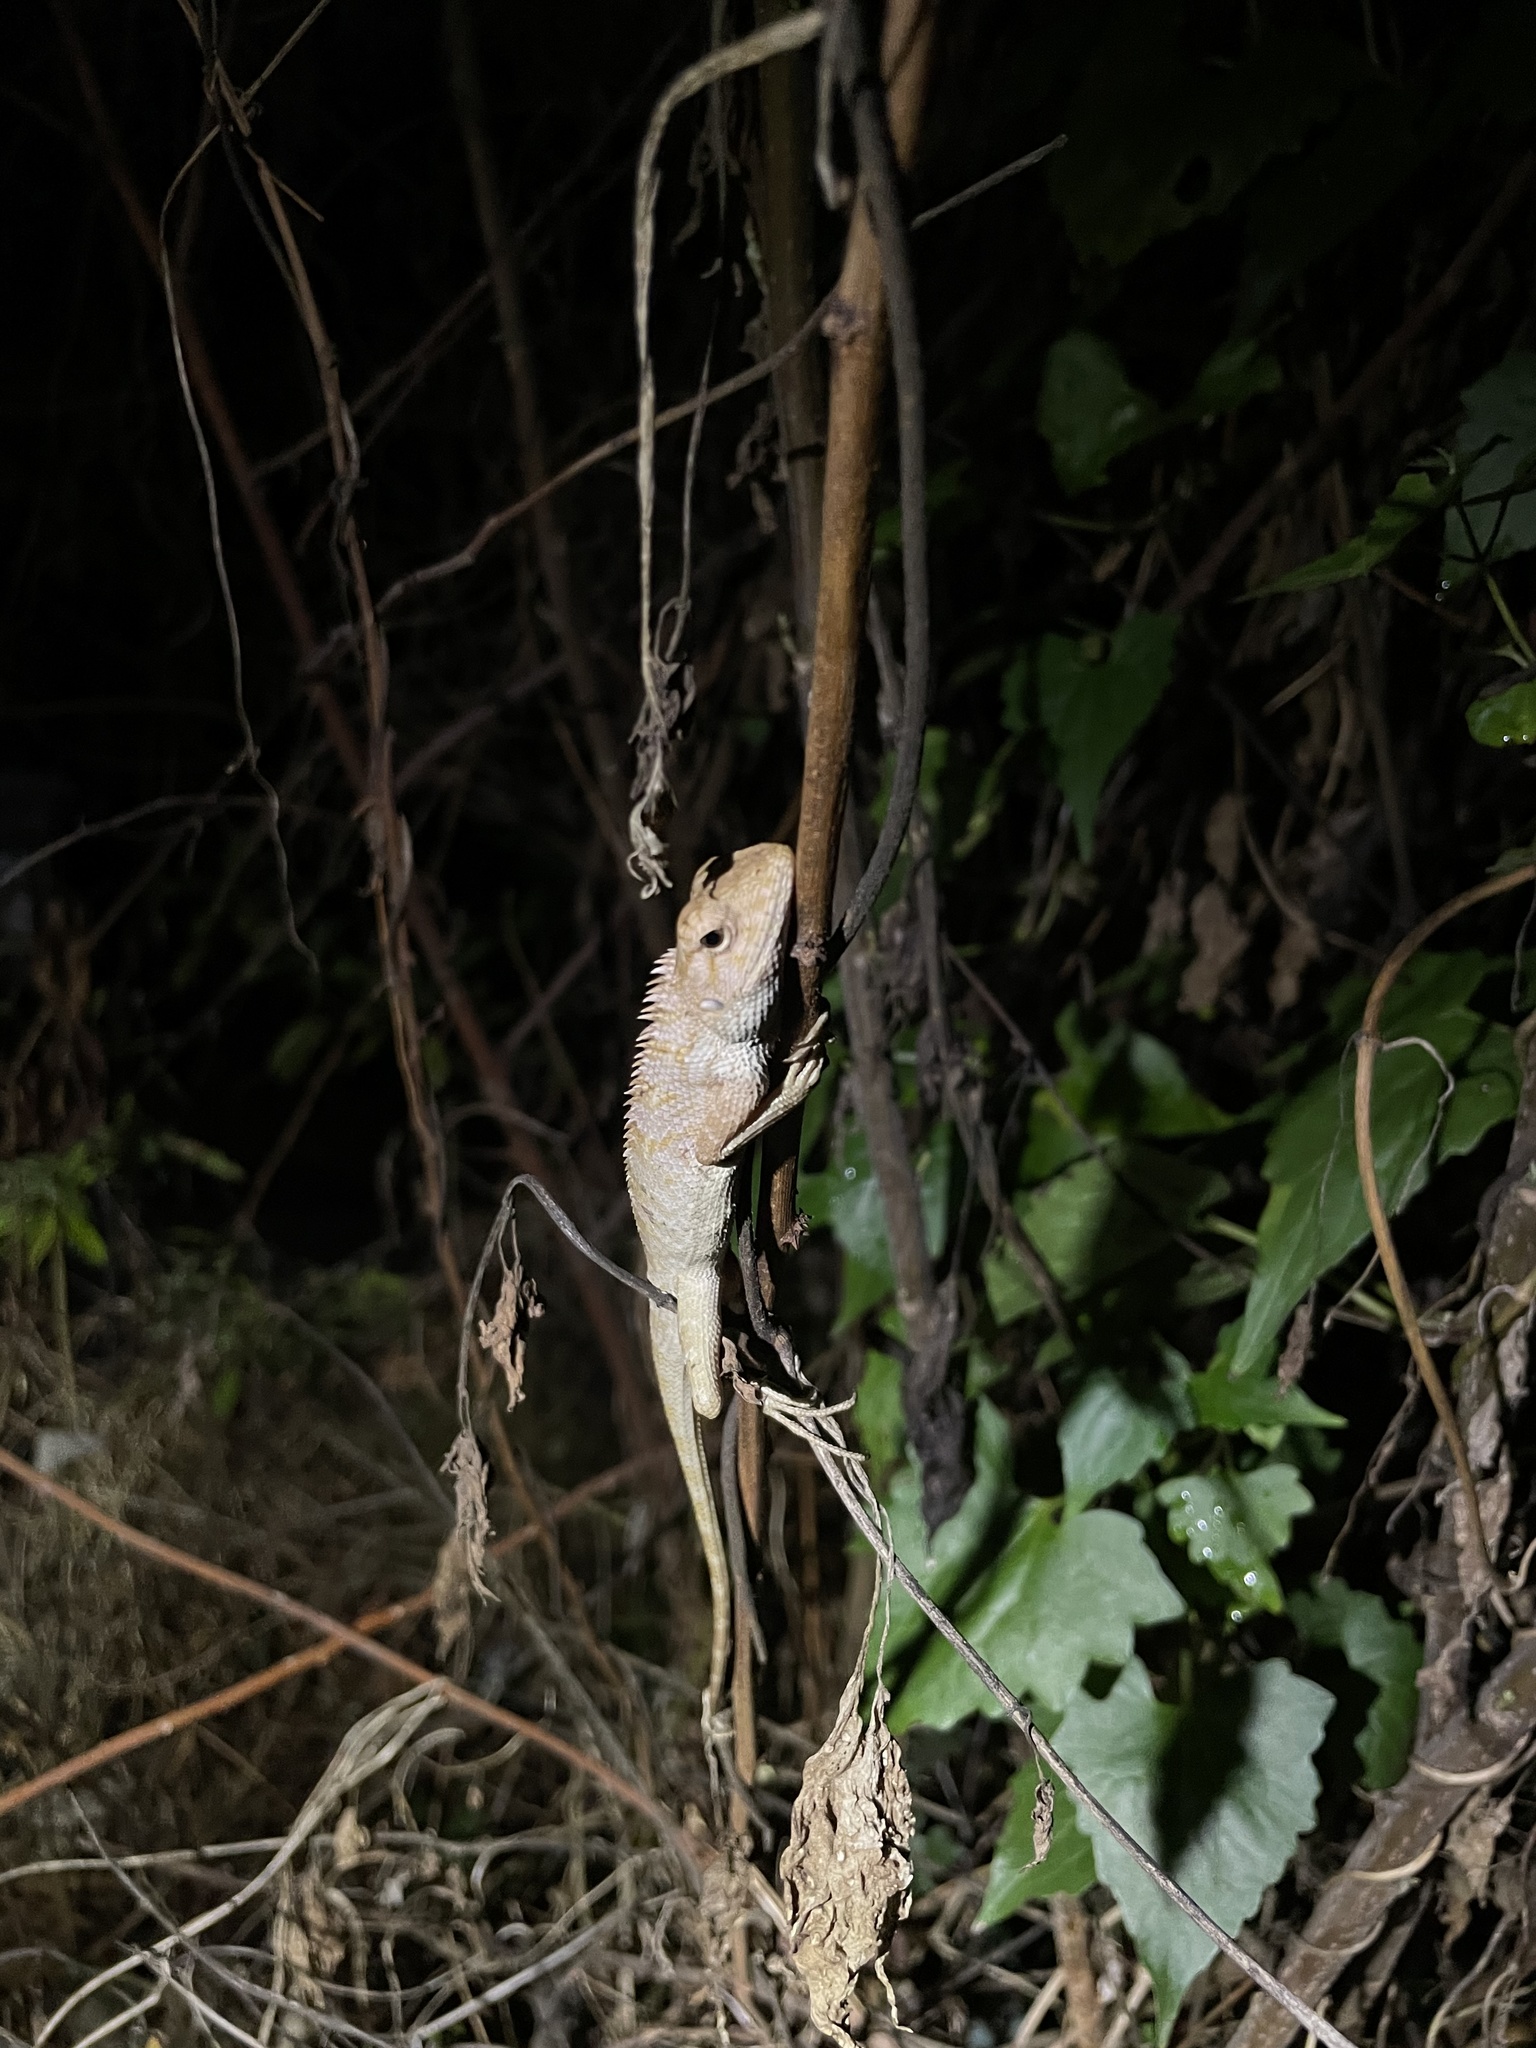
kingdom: Animalia
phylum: Chordata
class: Squamata
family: Agamidae
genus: Calotes
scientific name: Calotes versicolor
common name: Oriental garden lizard
